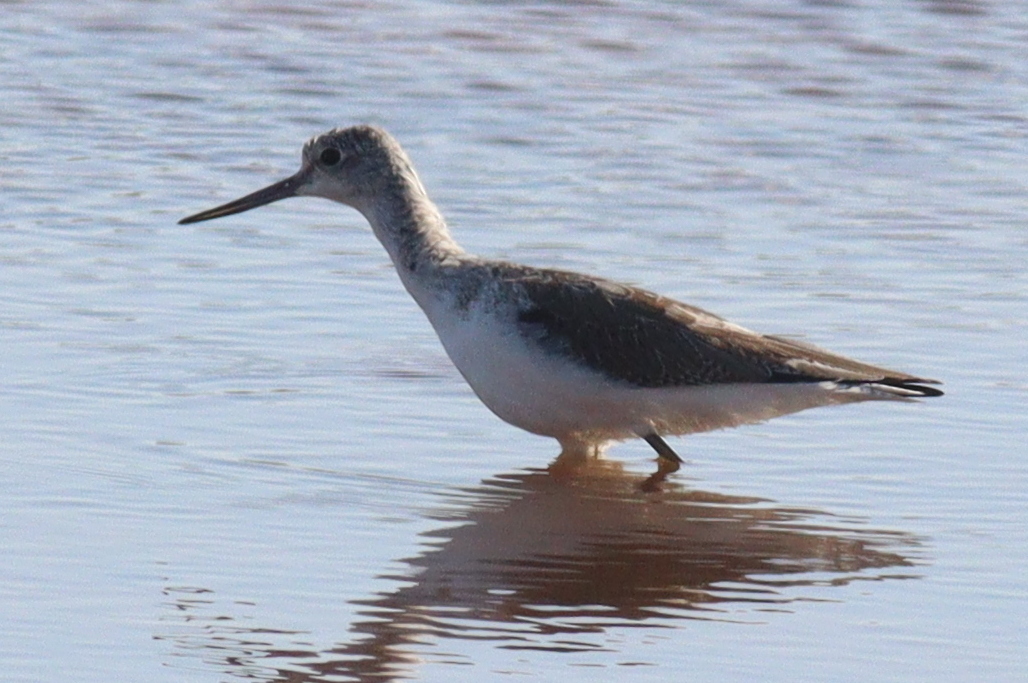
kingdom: Animalia
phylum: Chordata
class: Aves
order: Charadriiformes
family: Scolopacidae
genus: Tringa
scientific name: Tringa nebularia
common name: Common greenshank
